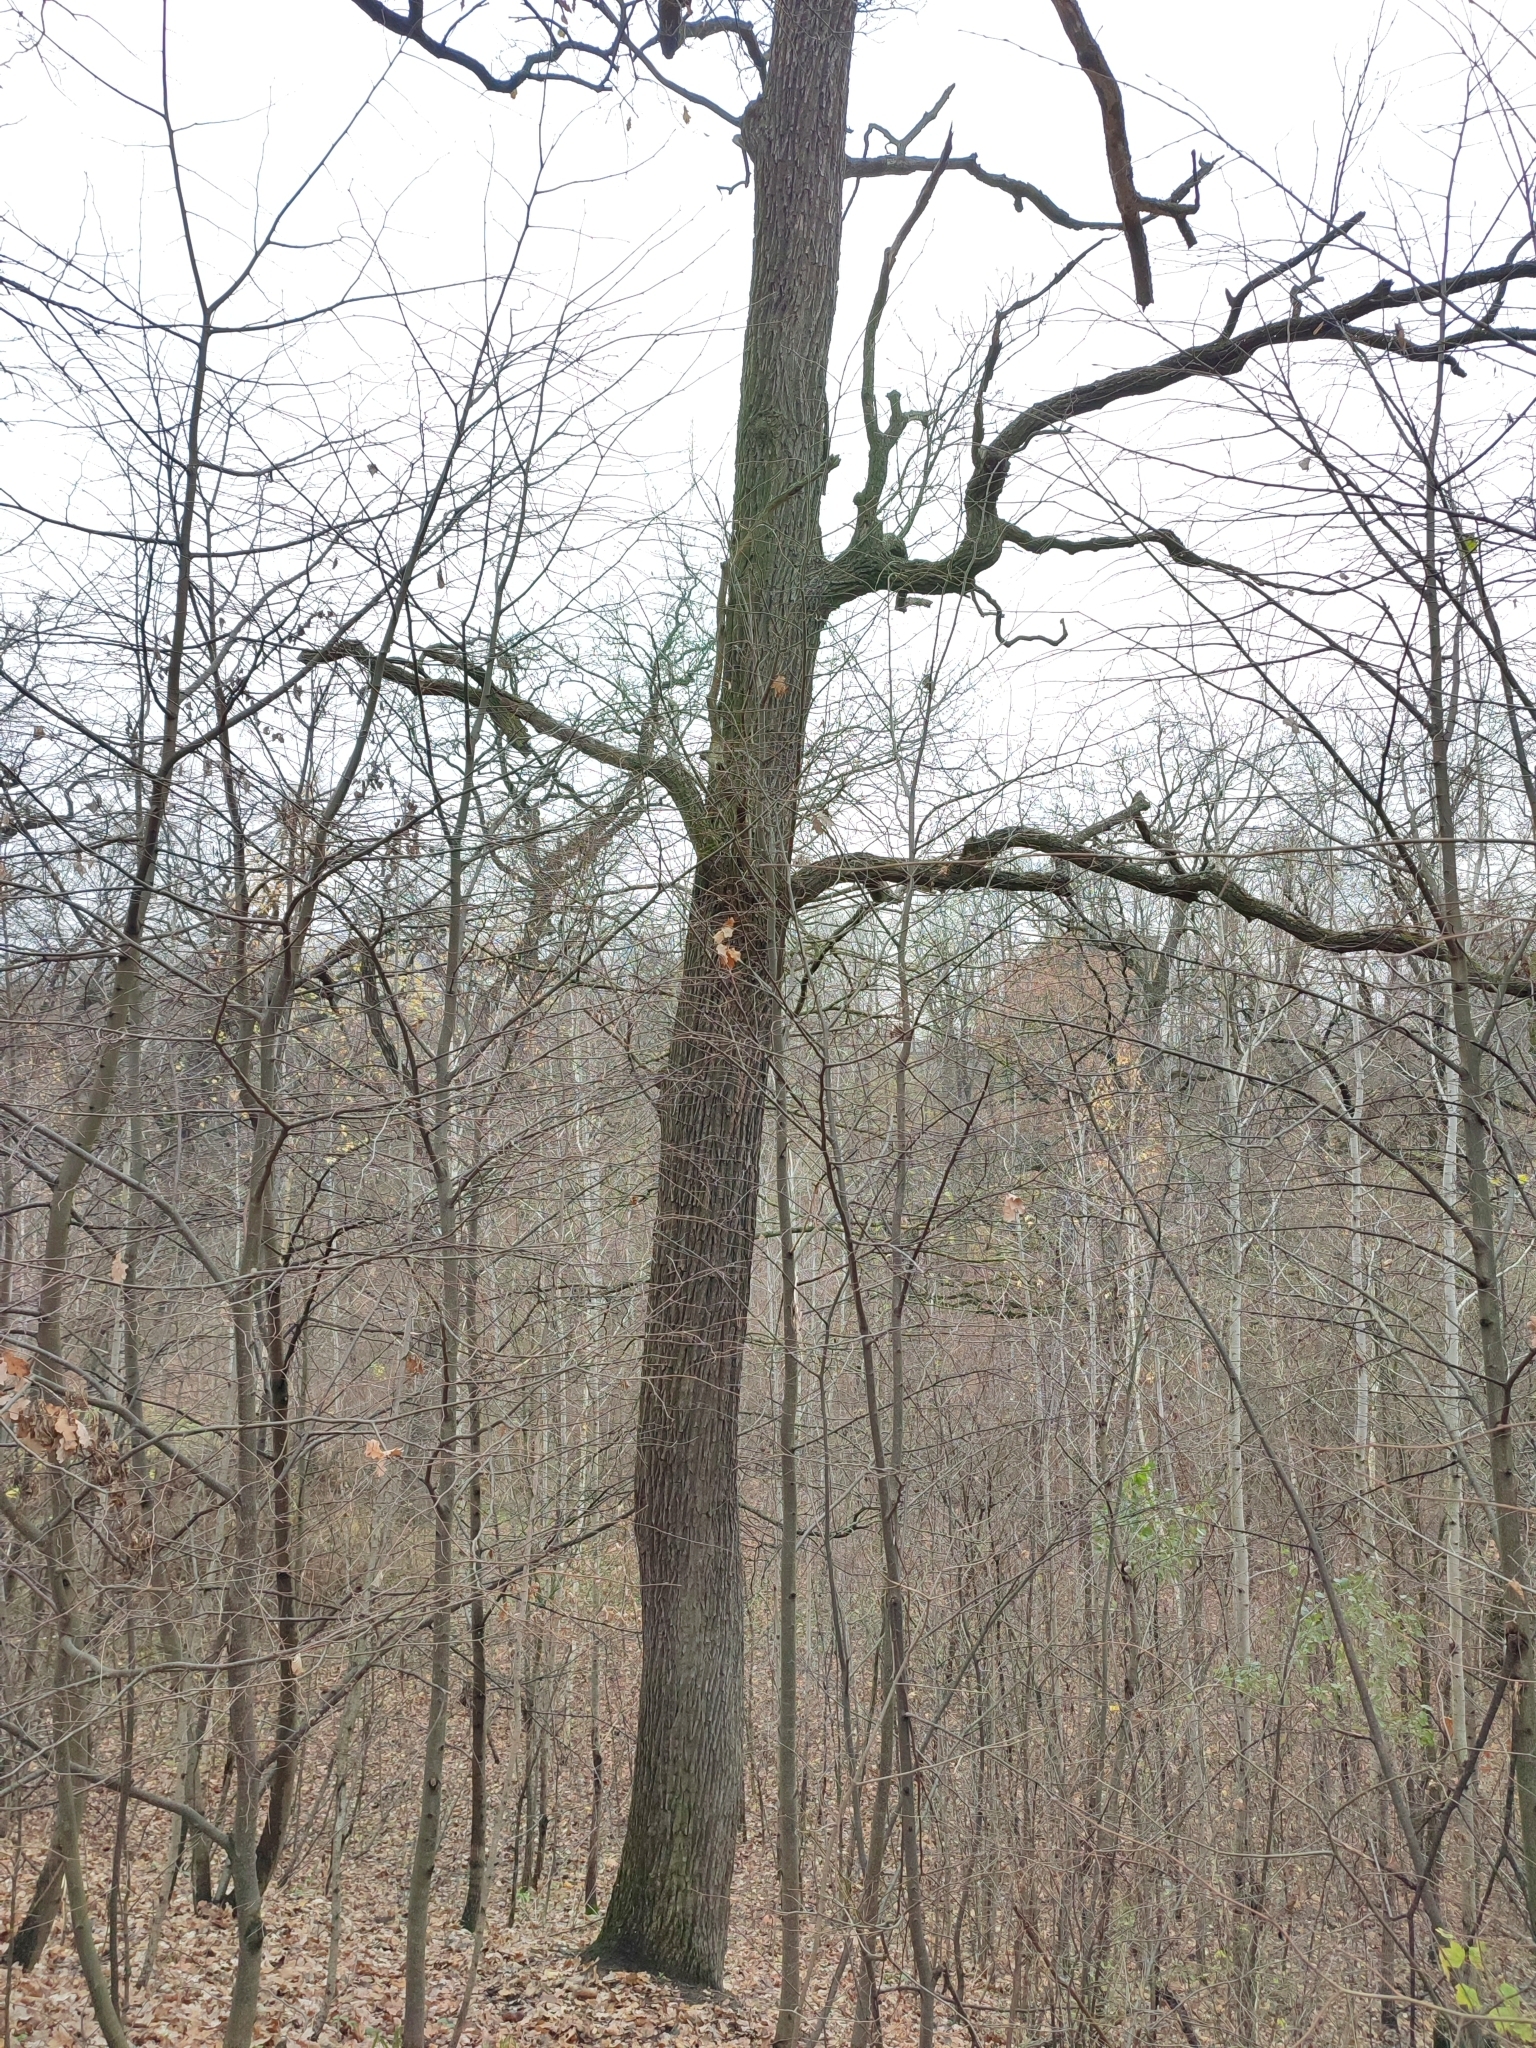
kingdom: Plantae
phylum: Tracheophyta
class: Magnoliopsida
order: Fagales
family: Fagaceae
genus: Quercus
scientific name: Quercus robur
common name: Pedunculate oak
